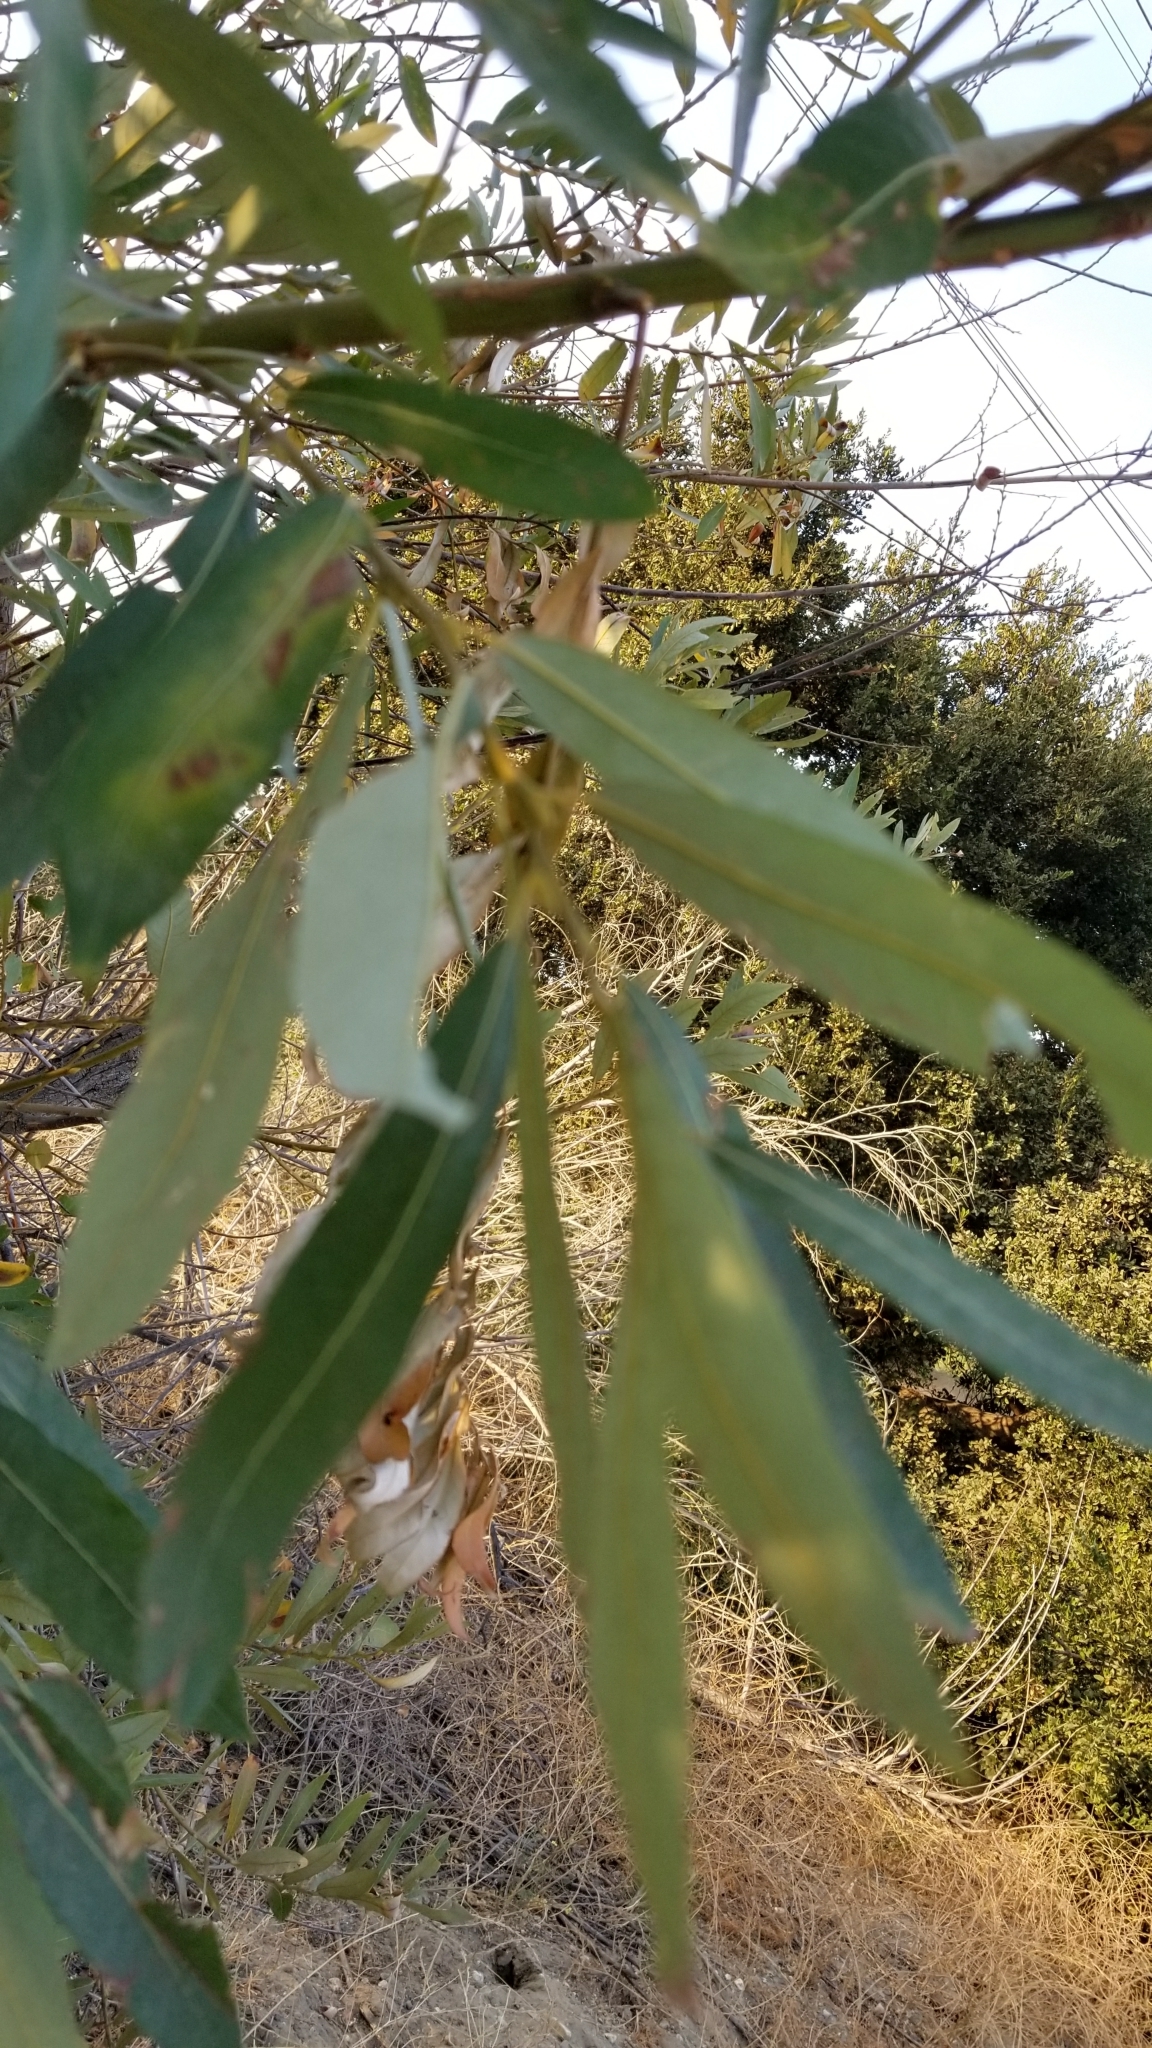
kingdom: Plantae
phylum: Tracheophyta
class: Magnoliopsida
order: Malpighiales
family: Salicaceae
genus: Salix
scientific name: Salix lasiolepis
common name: Arroyo willow
